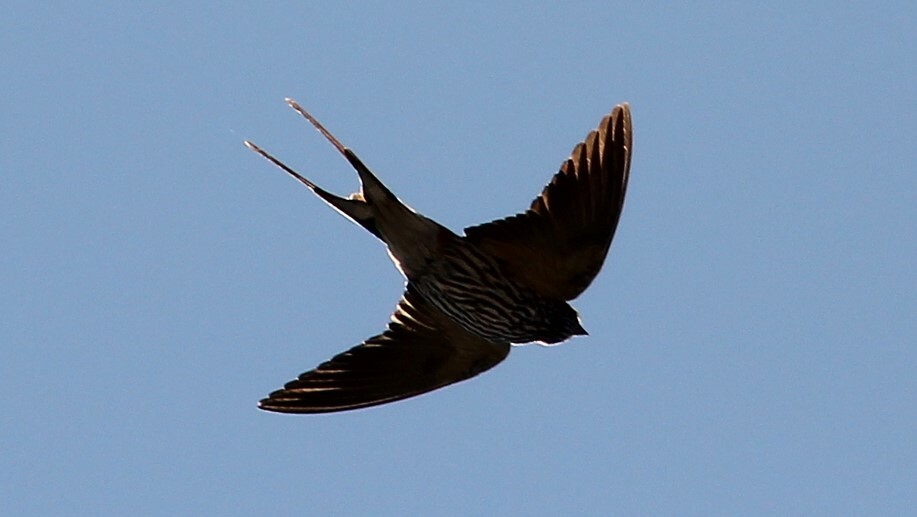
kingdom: Animalia
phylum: Chordata
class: Aves
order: Passeriformes
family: Hirundinidae
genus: Cecropis
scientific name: Cecropis abyssinica
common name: Lesser striped-swallow
